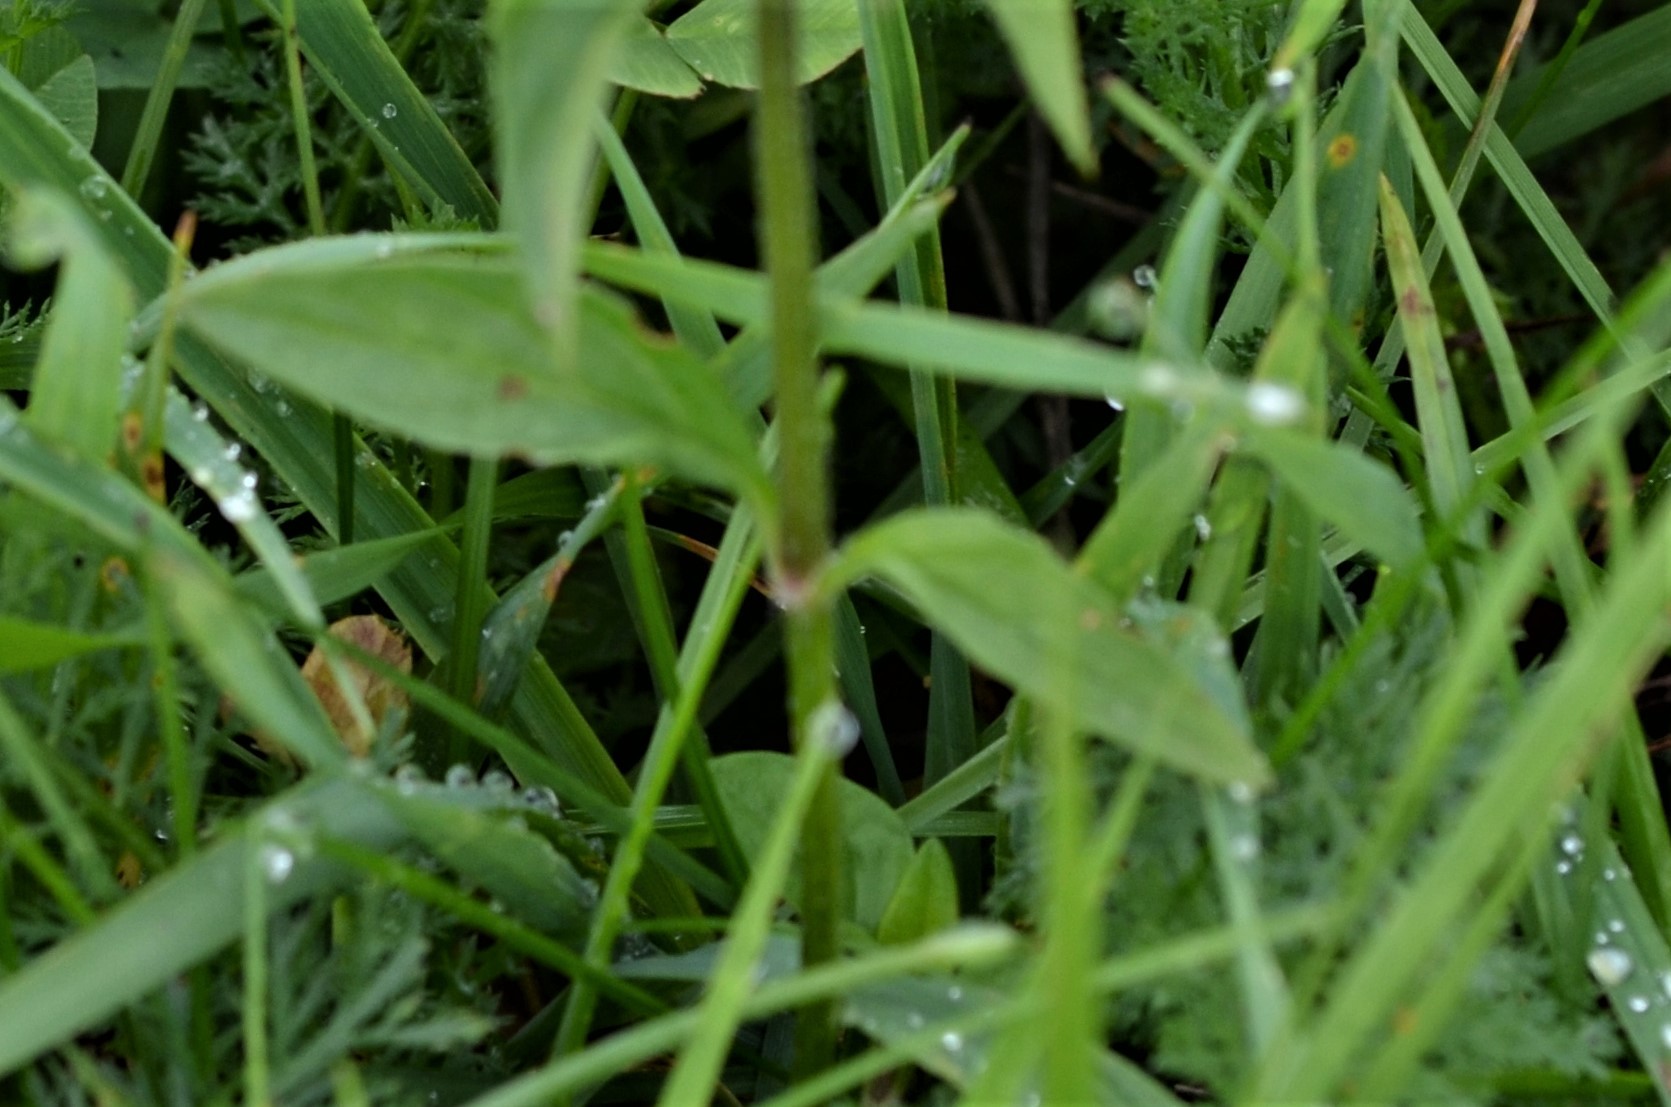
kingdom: Plantae
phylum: Tracheophyta
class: Magnoliopsida
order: Lamiales
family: Lamiaceae
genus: Prunella
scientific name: Prunella vulgaris
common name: Heal-all
